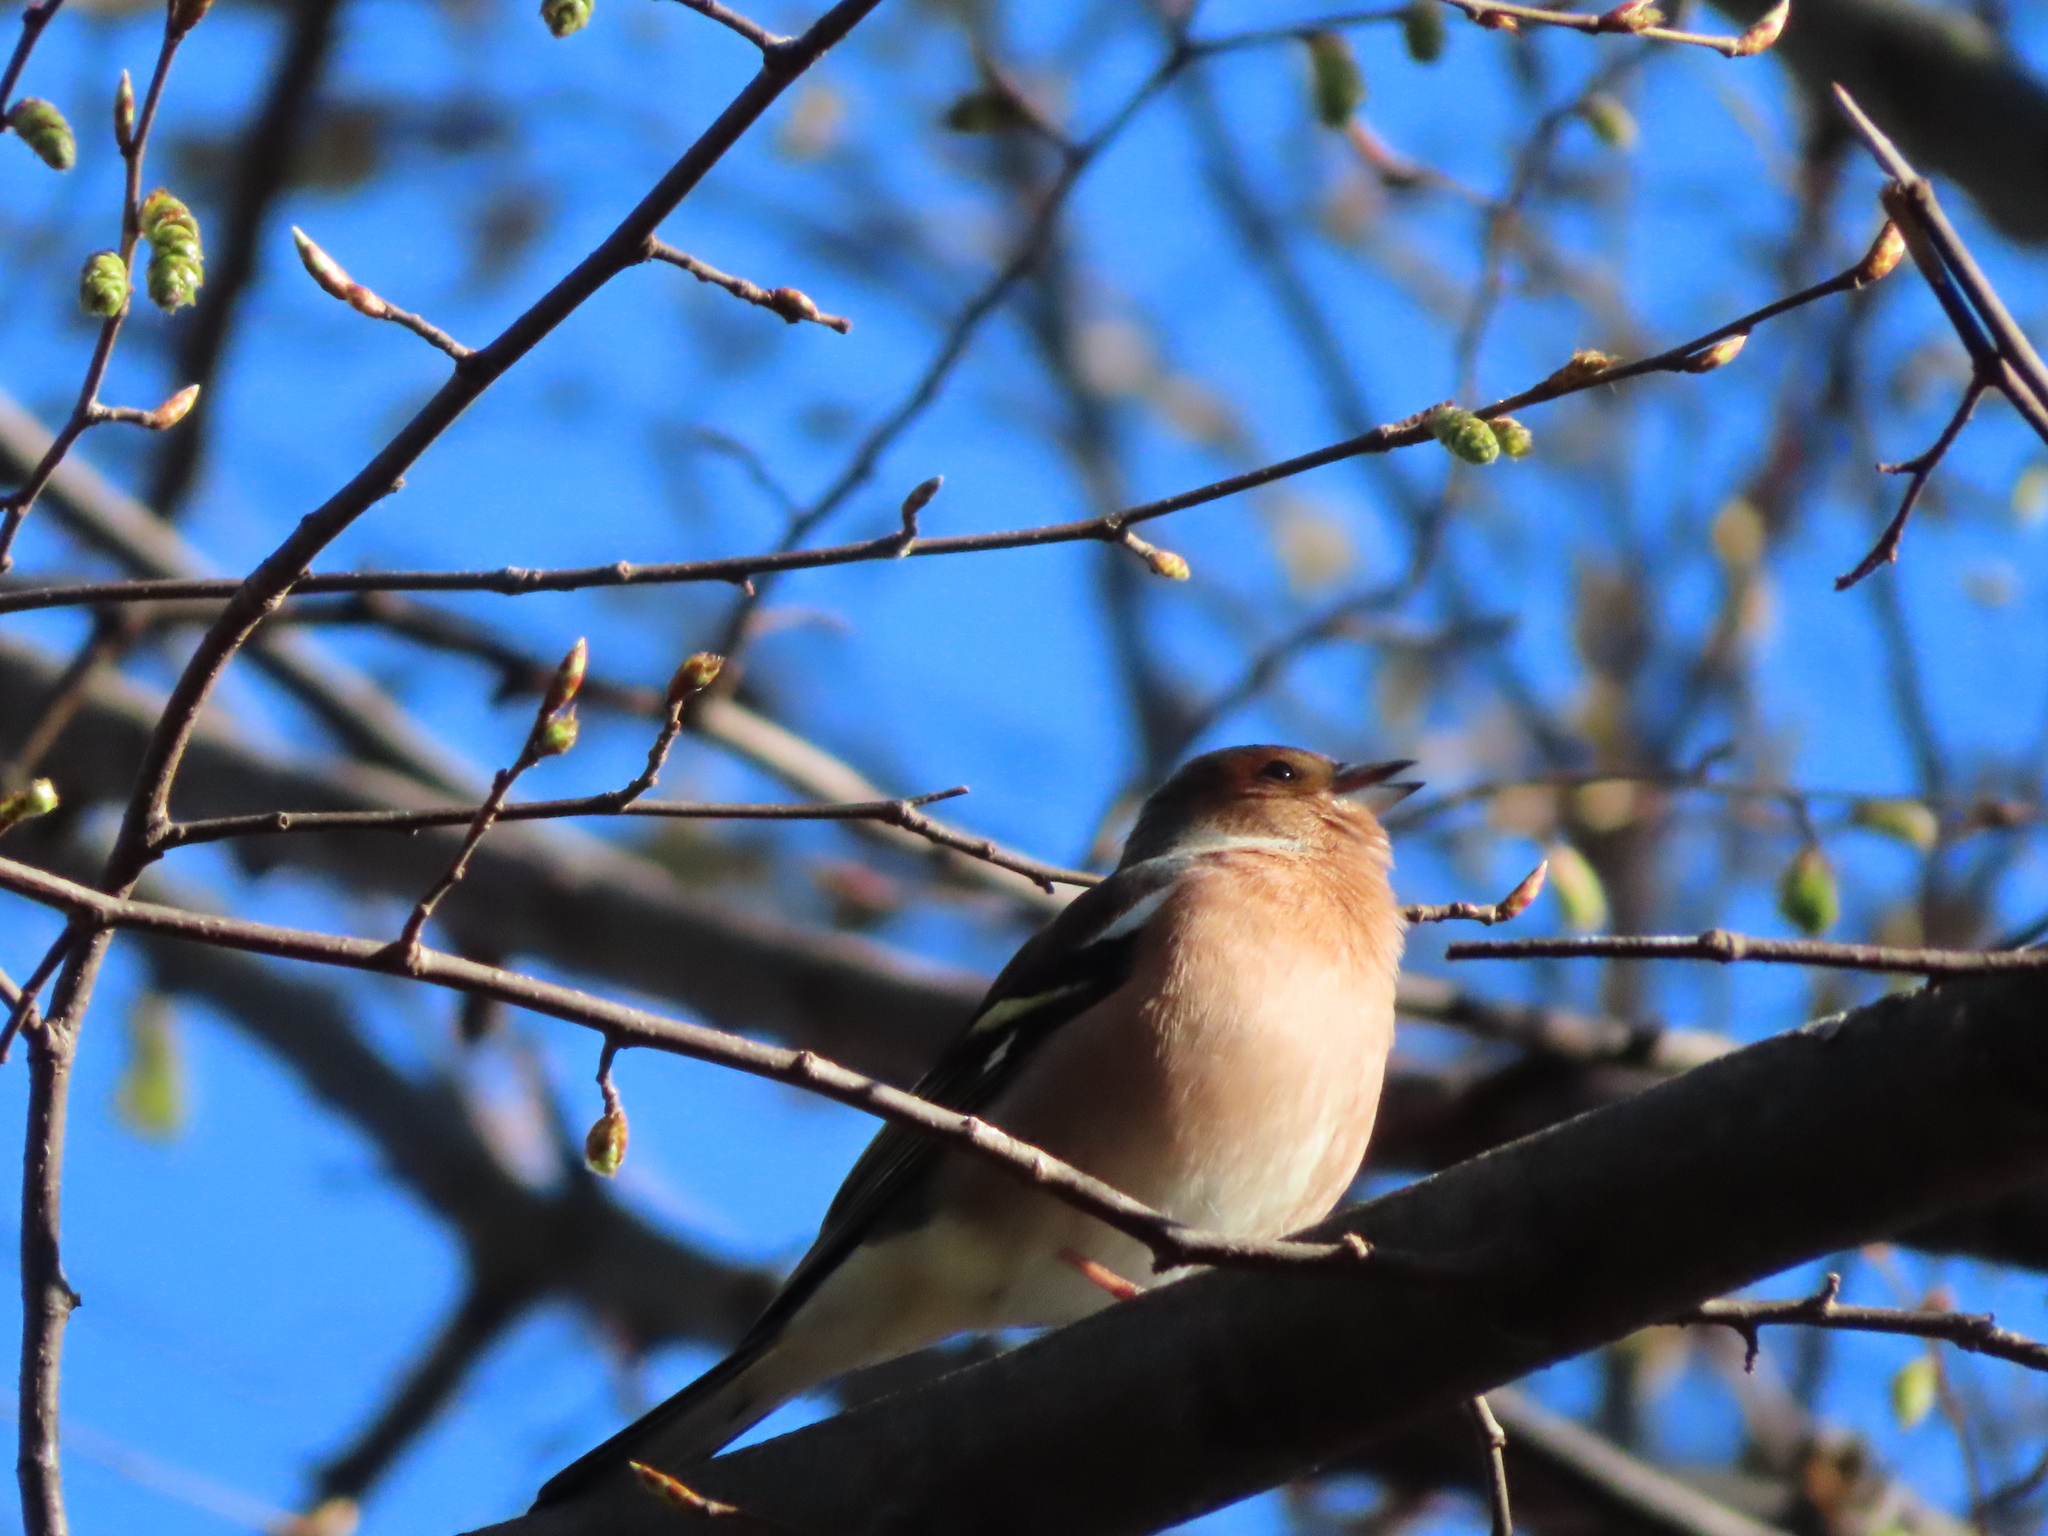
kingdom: Animalia
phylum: Chordata
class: Aves
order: Passeriformes
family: Fringillidae
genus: Fringilla
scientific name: Fringilla coelebs
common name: Common chaffinch
